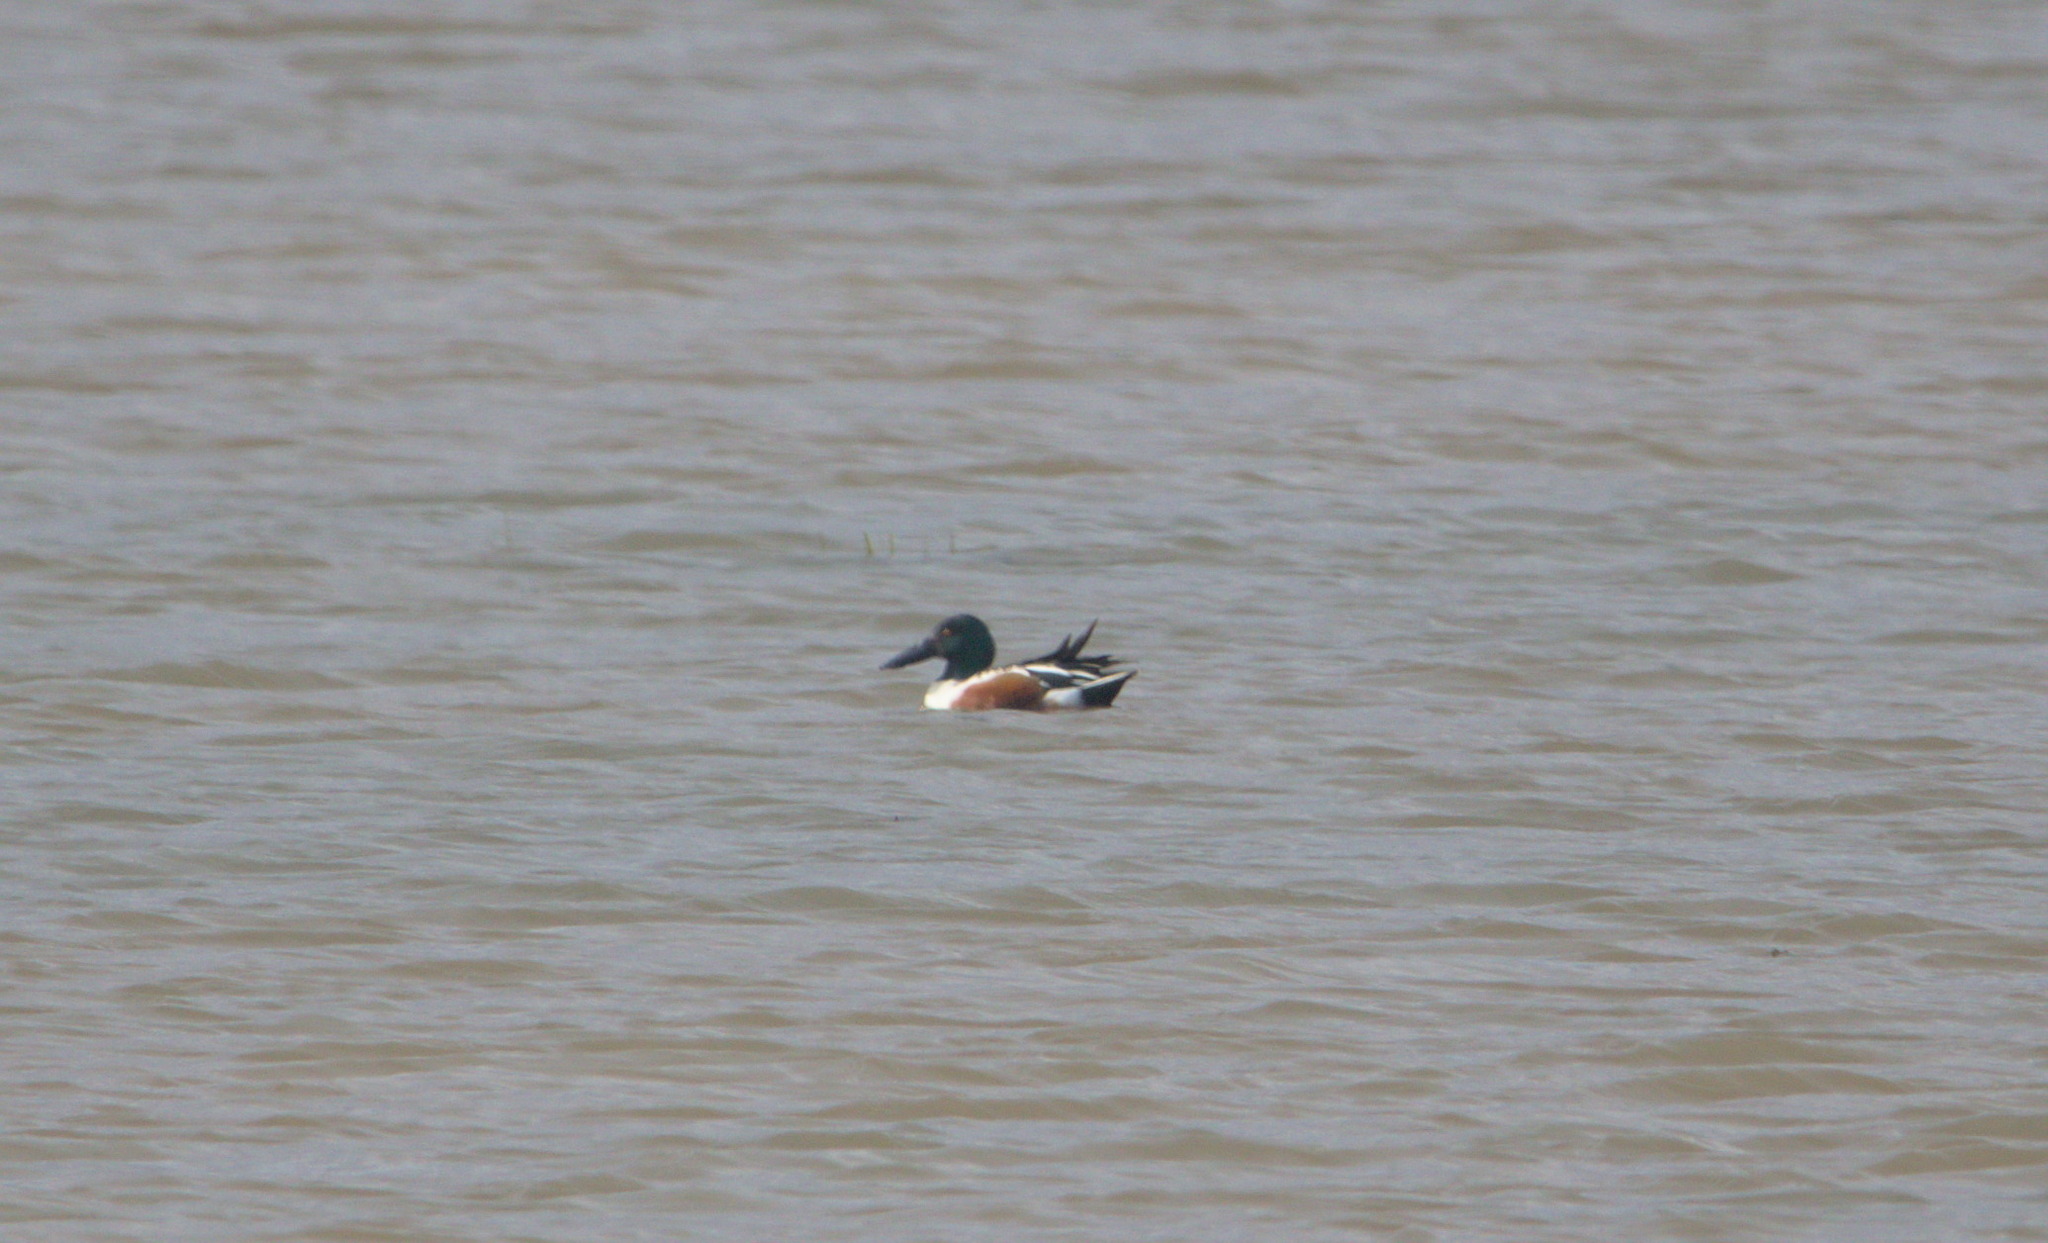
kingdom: Animalia
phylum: Chordata
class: Aves
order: Anseriformes
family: Anatidae
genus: Spatula
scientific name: Spatula clypeata
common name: Northern shoveler
